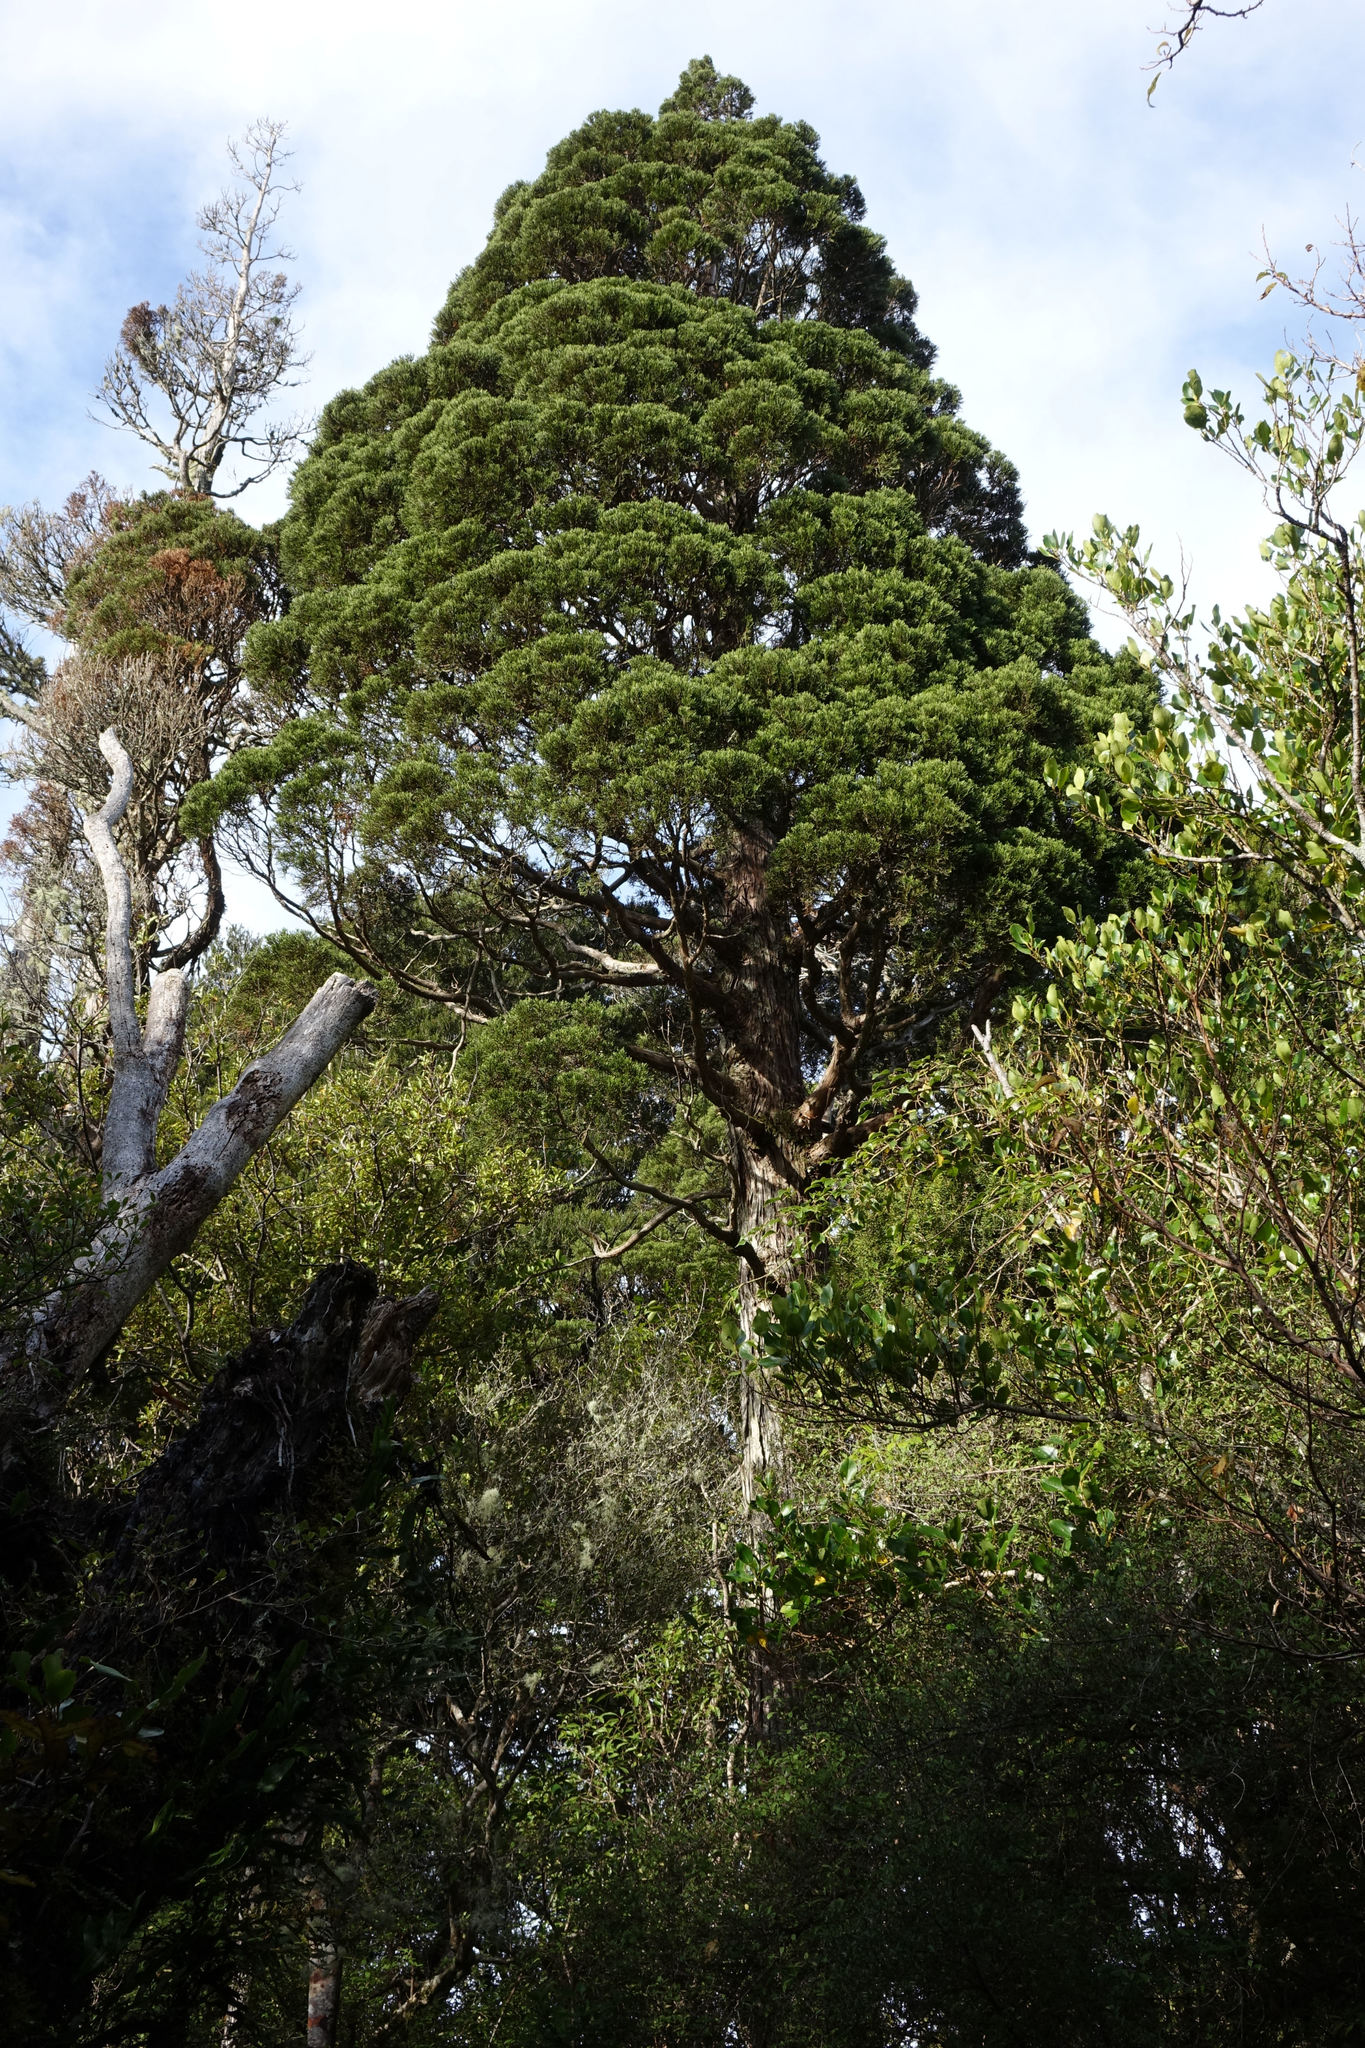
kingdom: Plantae
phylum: Tracheophyta
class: Pinopsida
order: Pinales
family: Cupressaceae
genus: Libocedrus
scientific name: Libocedrus bidwillii
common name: Cedar
